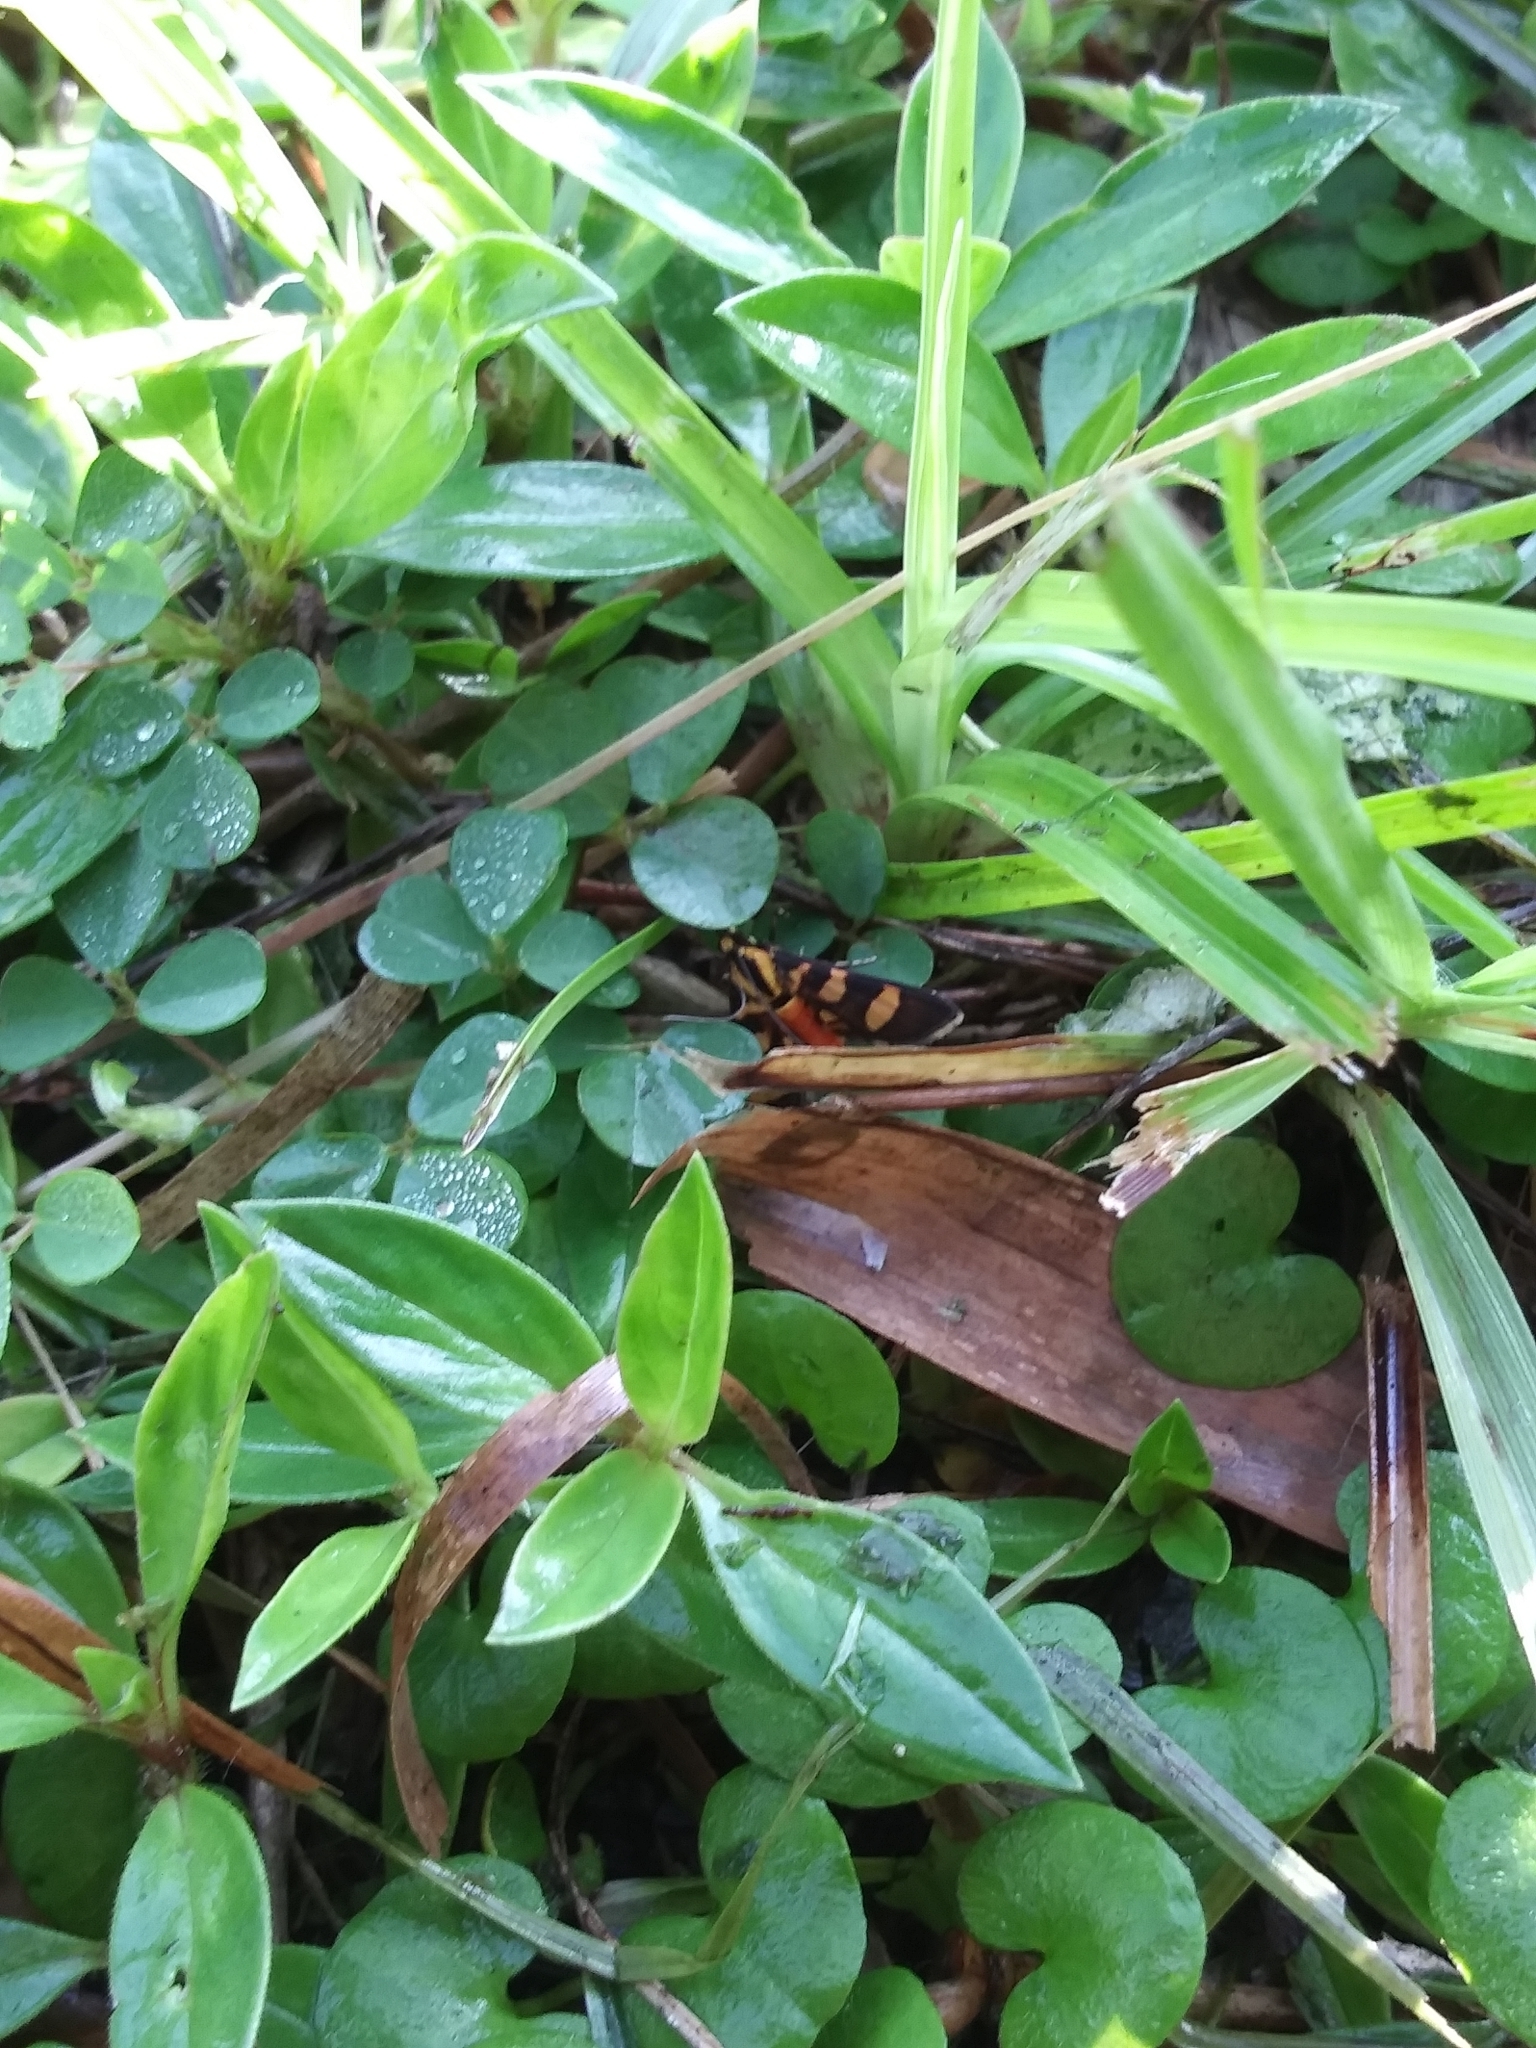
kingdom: Animalia
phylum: Arthropoda
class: Insecta
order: Lepidoptera
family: Crambidae
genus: Syngamia
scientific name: Syngamia florella
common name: Orange-spotted flower moth
